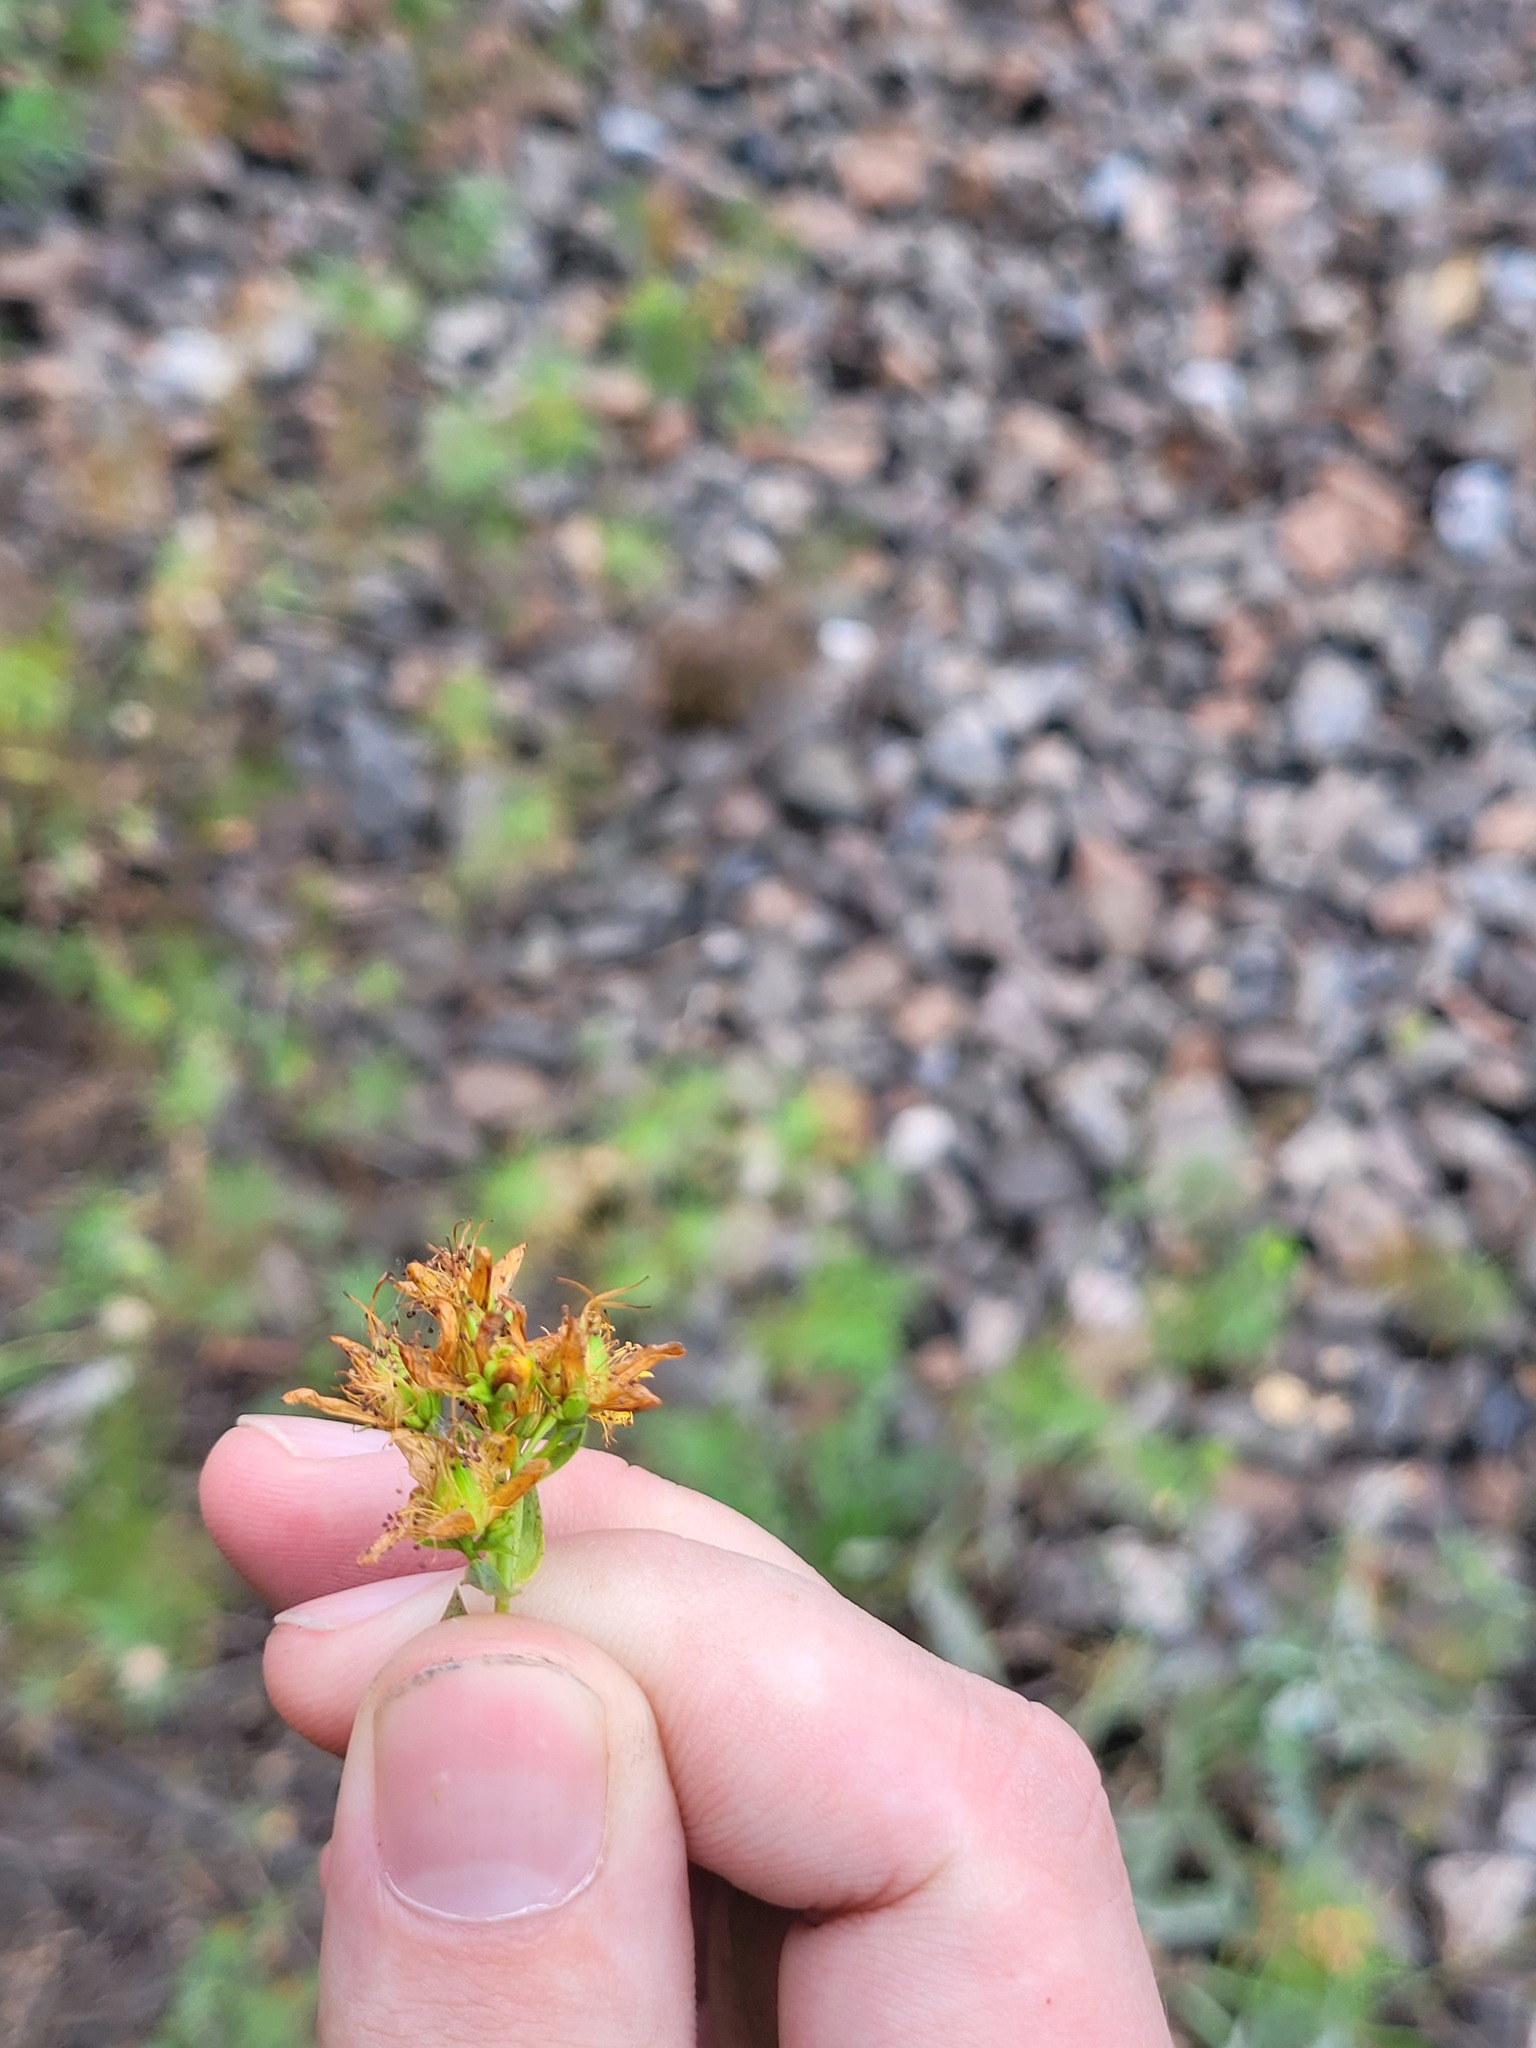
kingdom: Plantae
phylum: Tracheophyta
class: Magnoliopsida
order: Malpighiales
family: Hypericaceae
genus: Hypericum
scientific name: Hypericum perforatum
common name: Common st. johnswort
